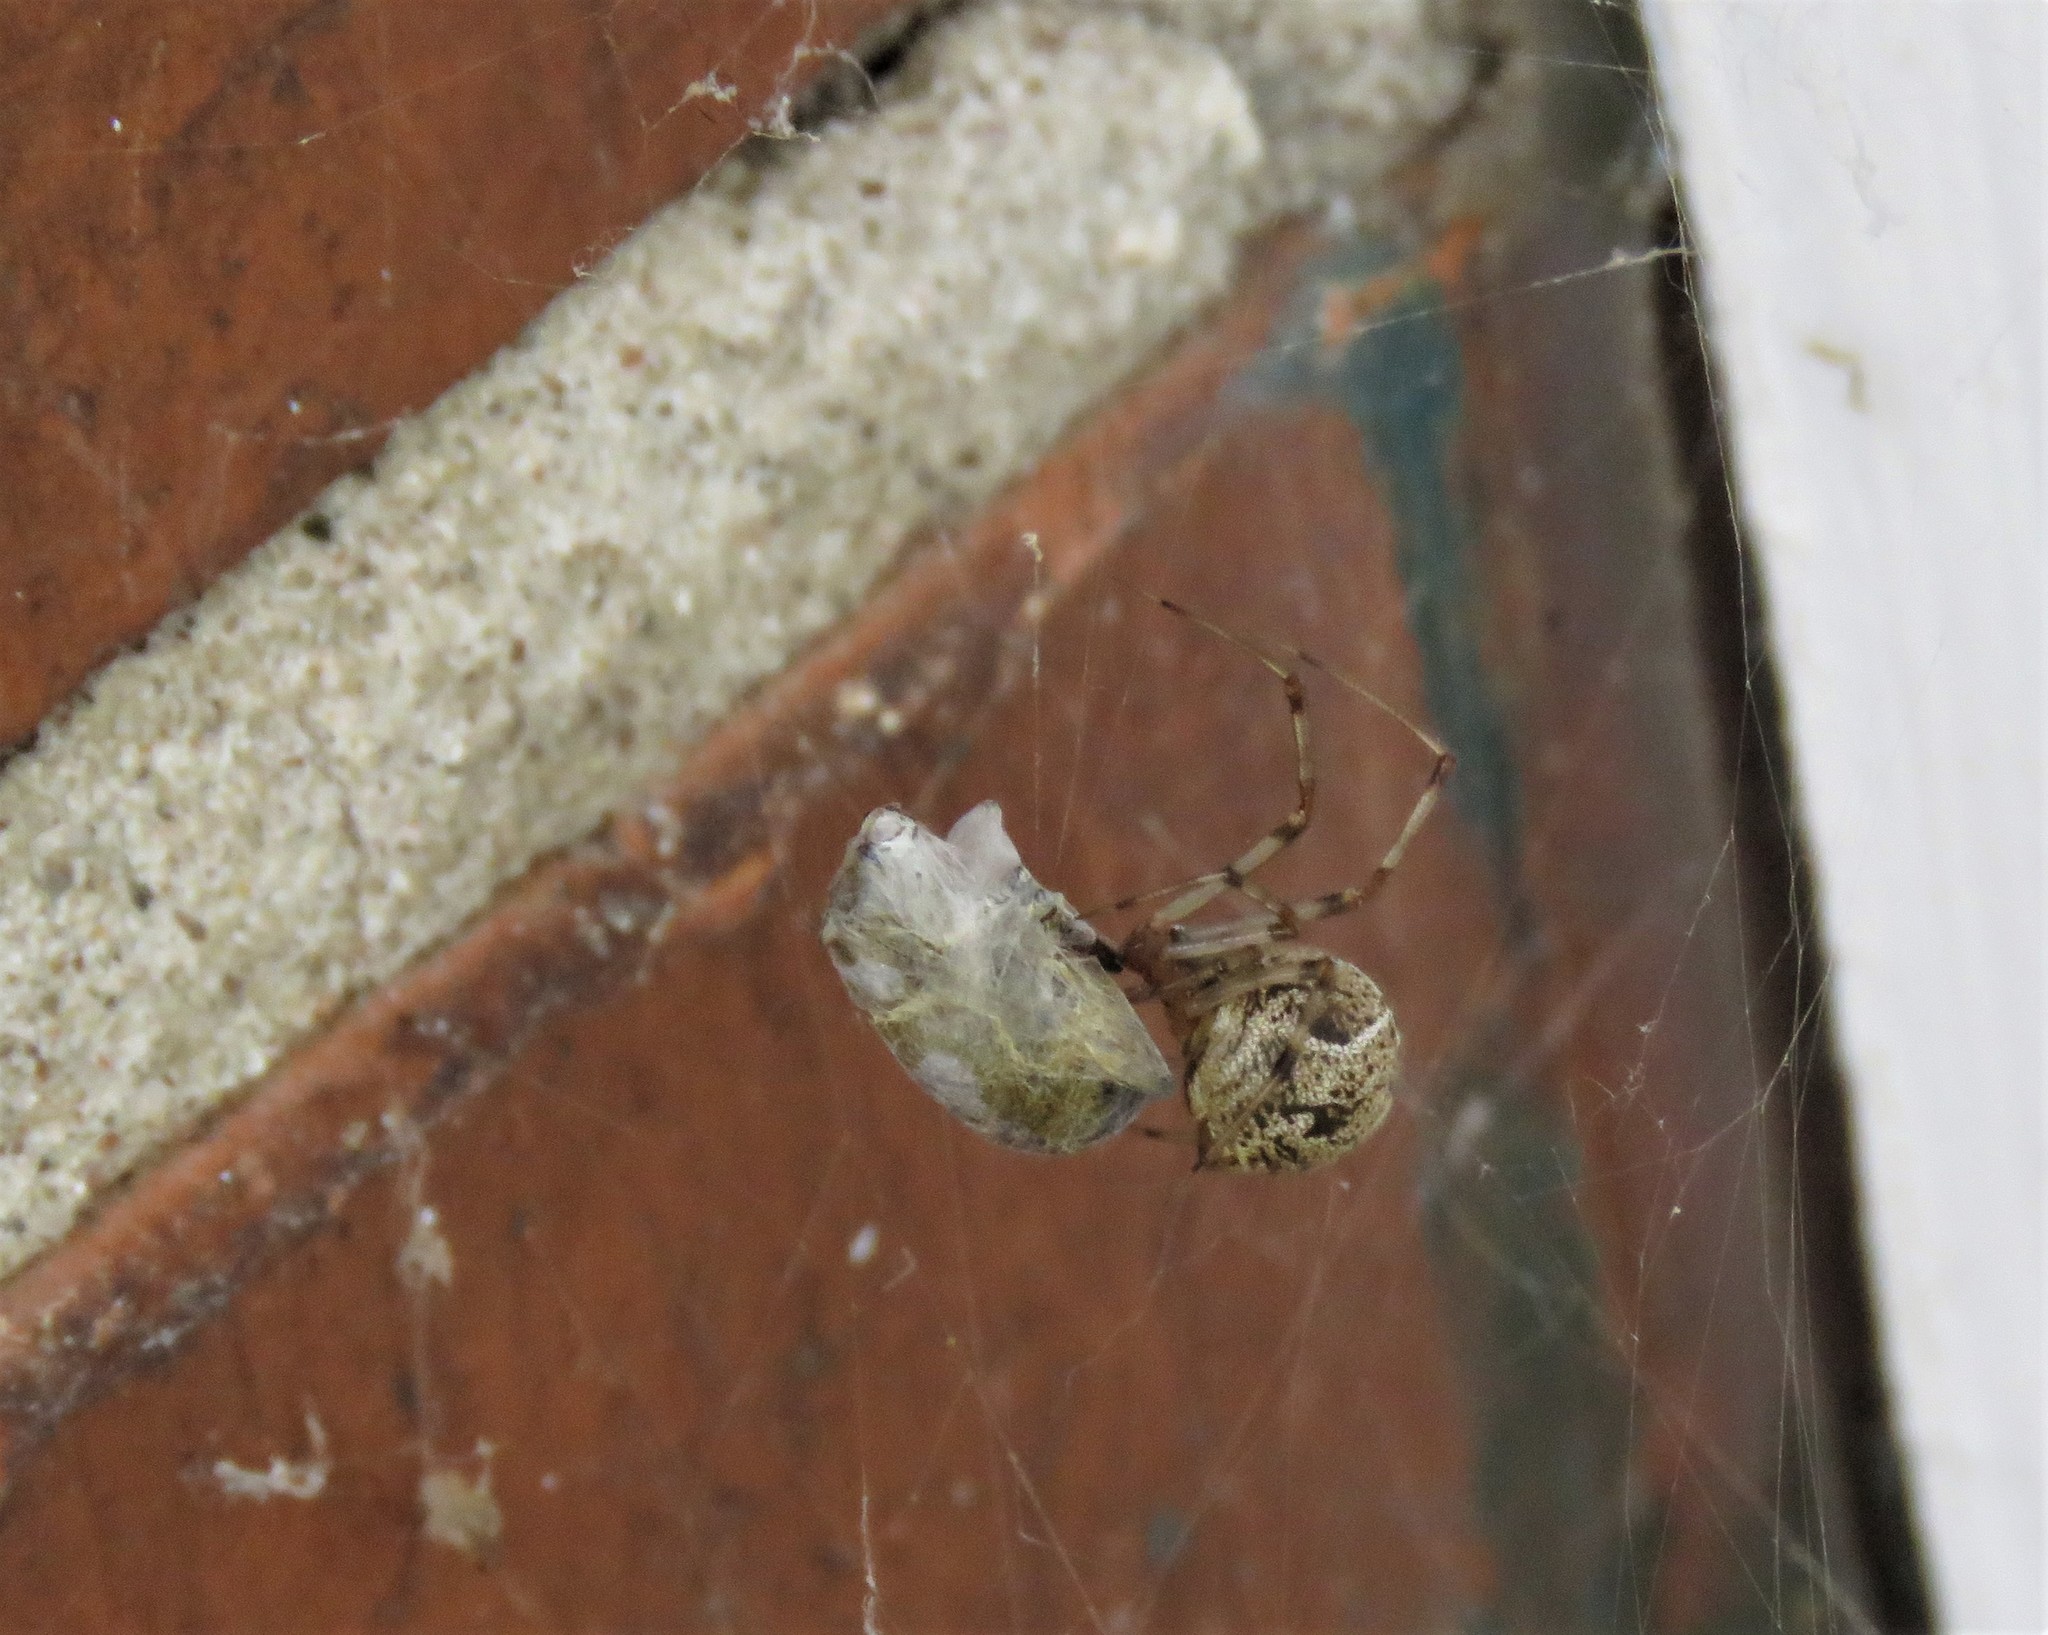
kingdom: Animalia
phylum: Arthropoda
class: Arachnida
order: Araneae
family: Theridiidae
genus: Parasteatoda
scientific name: Parasteatoda tepidariorum
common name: Common house spider
